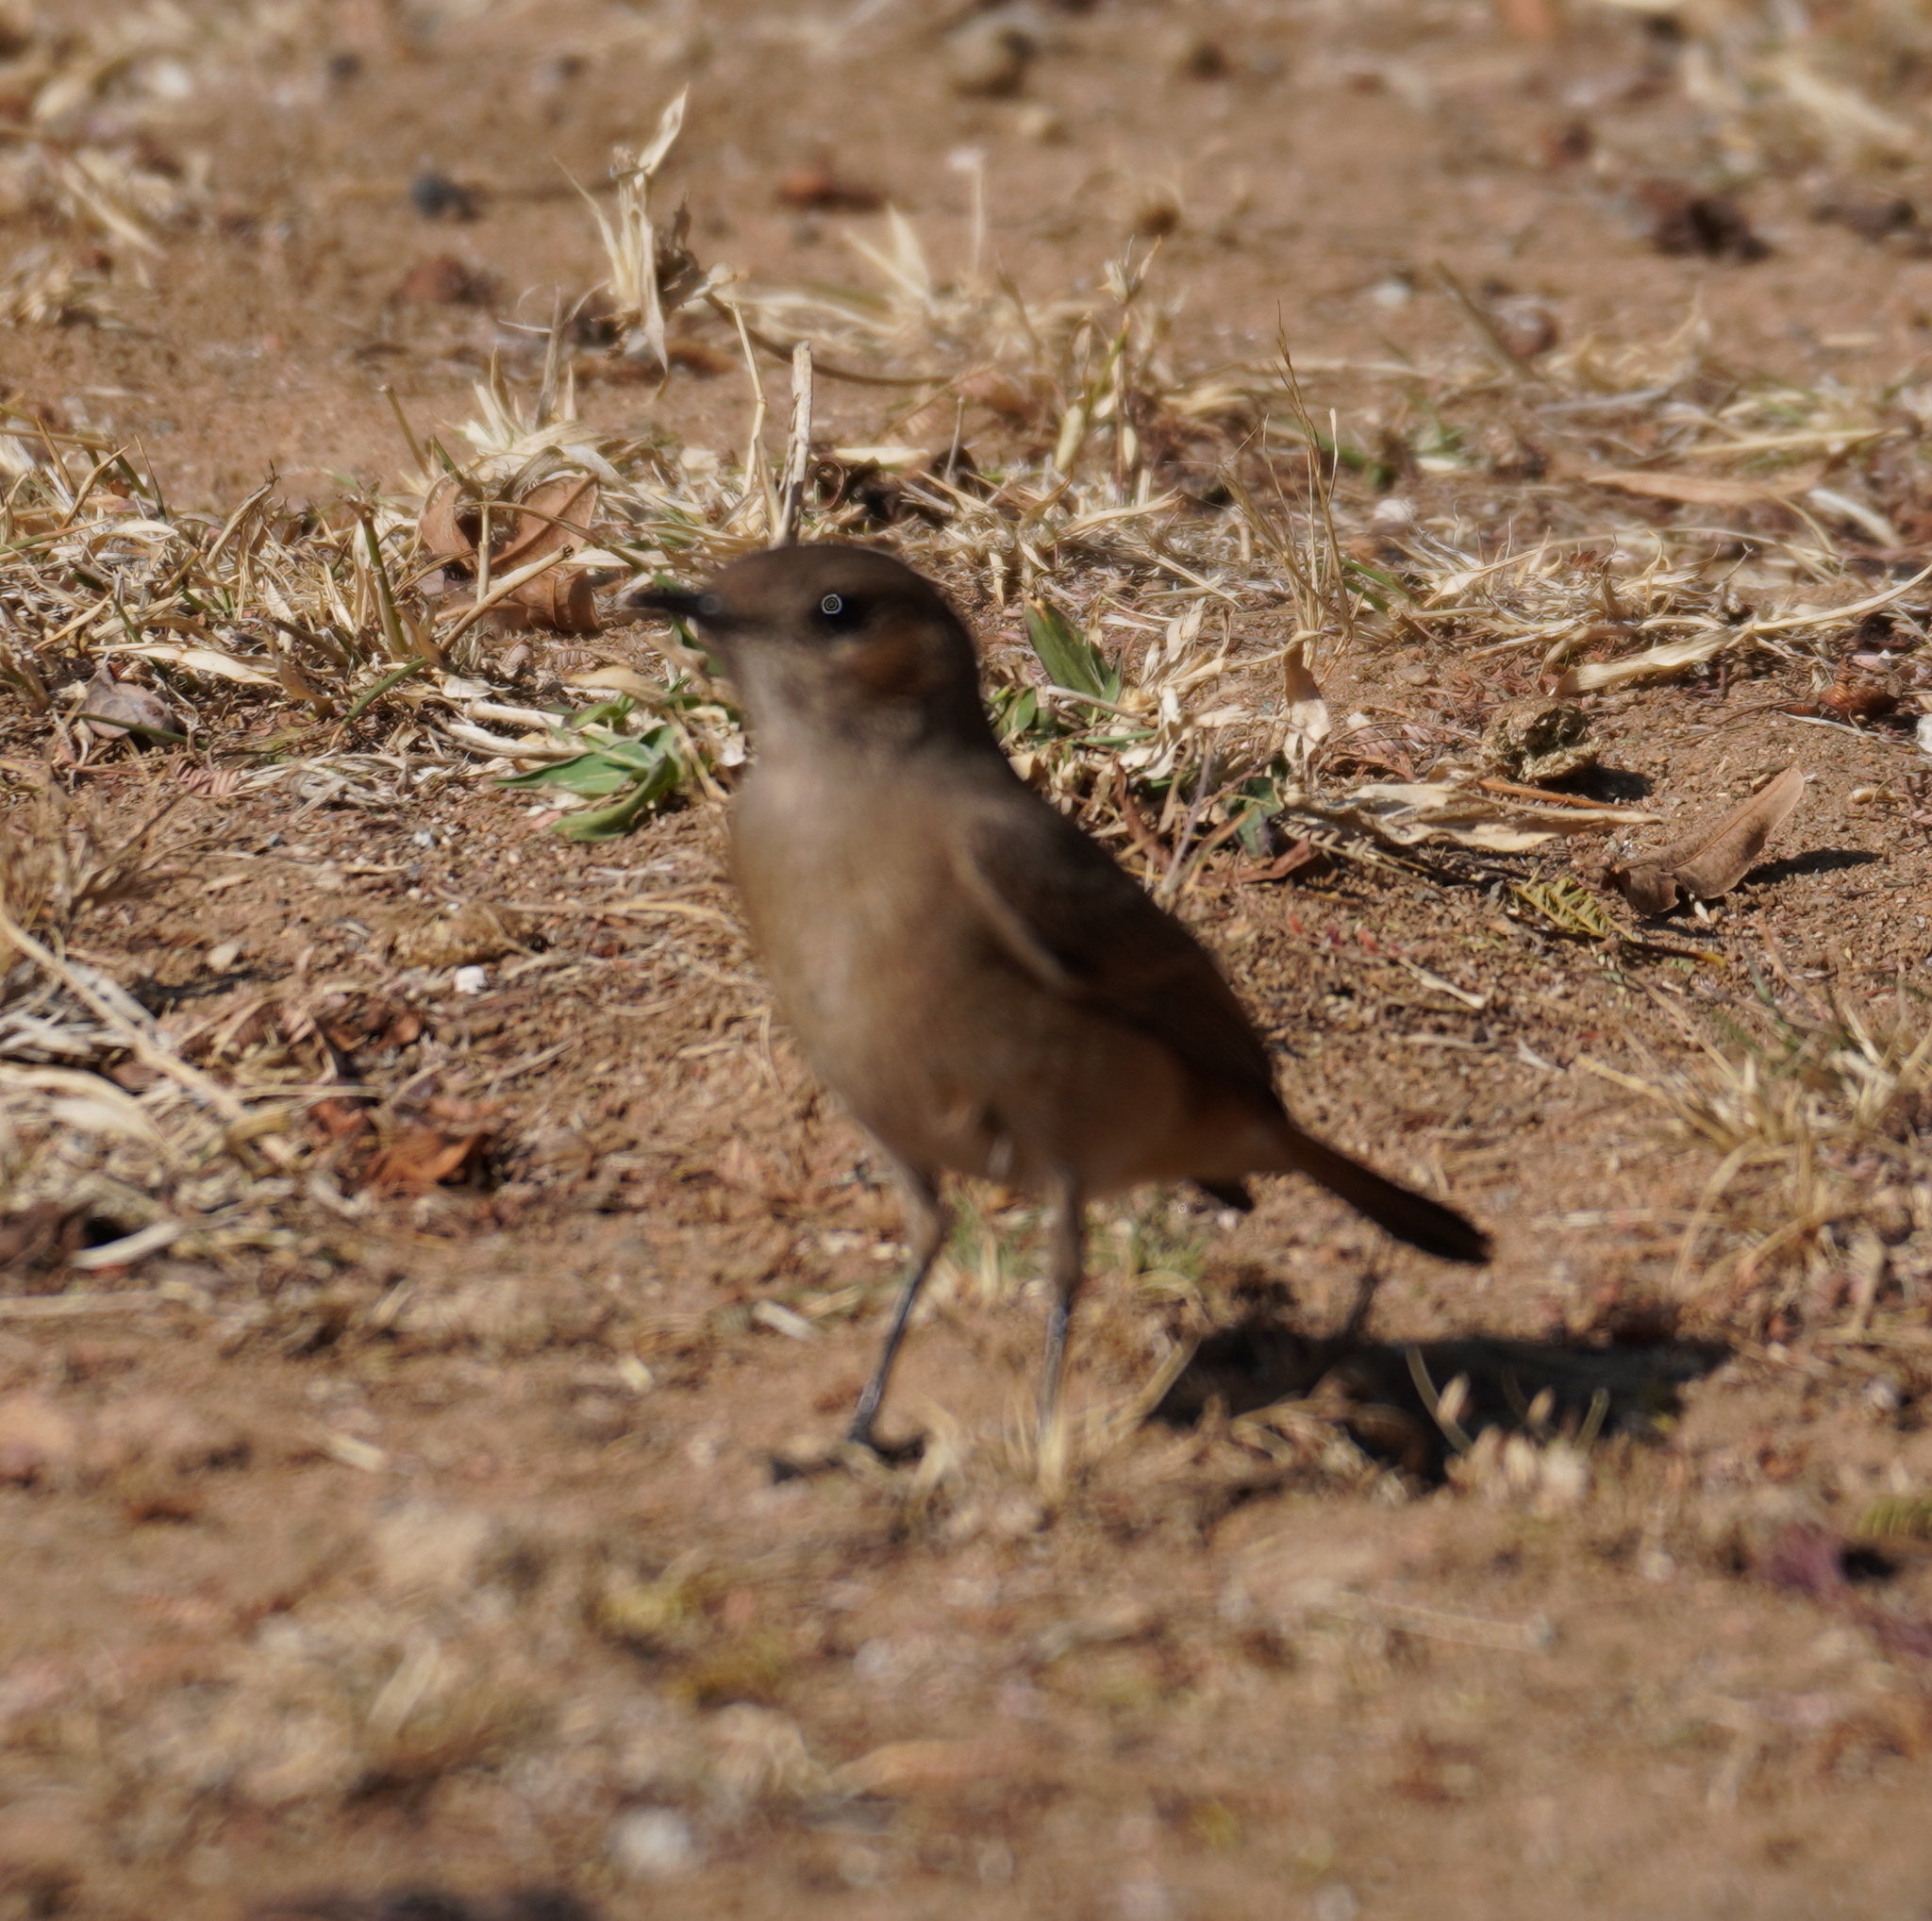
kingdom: Animalia
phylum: Chordata
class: Aves
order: Passeriformes
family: Muscicapidae
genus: Oenanthe
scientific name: Oenanthe familiaris
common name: Familiar chat
